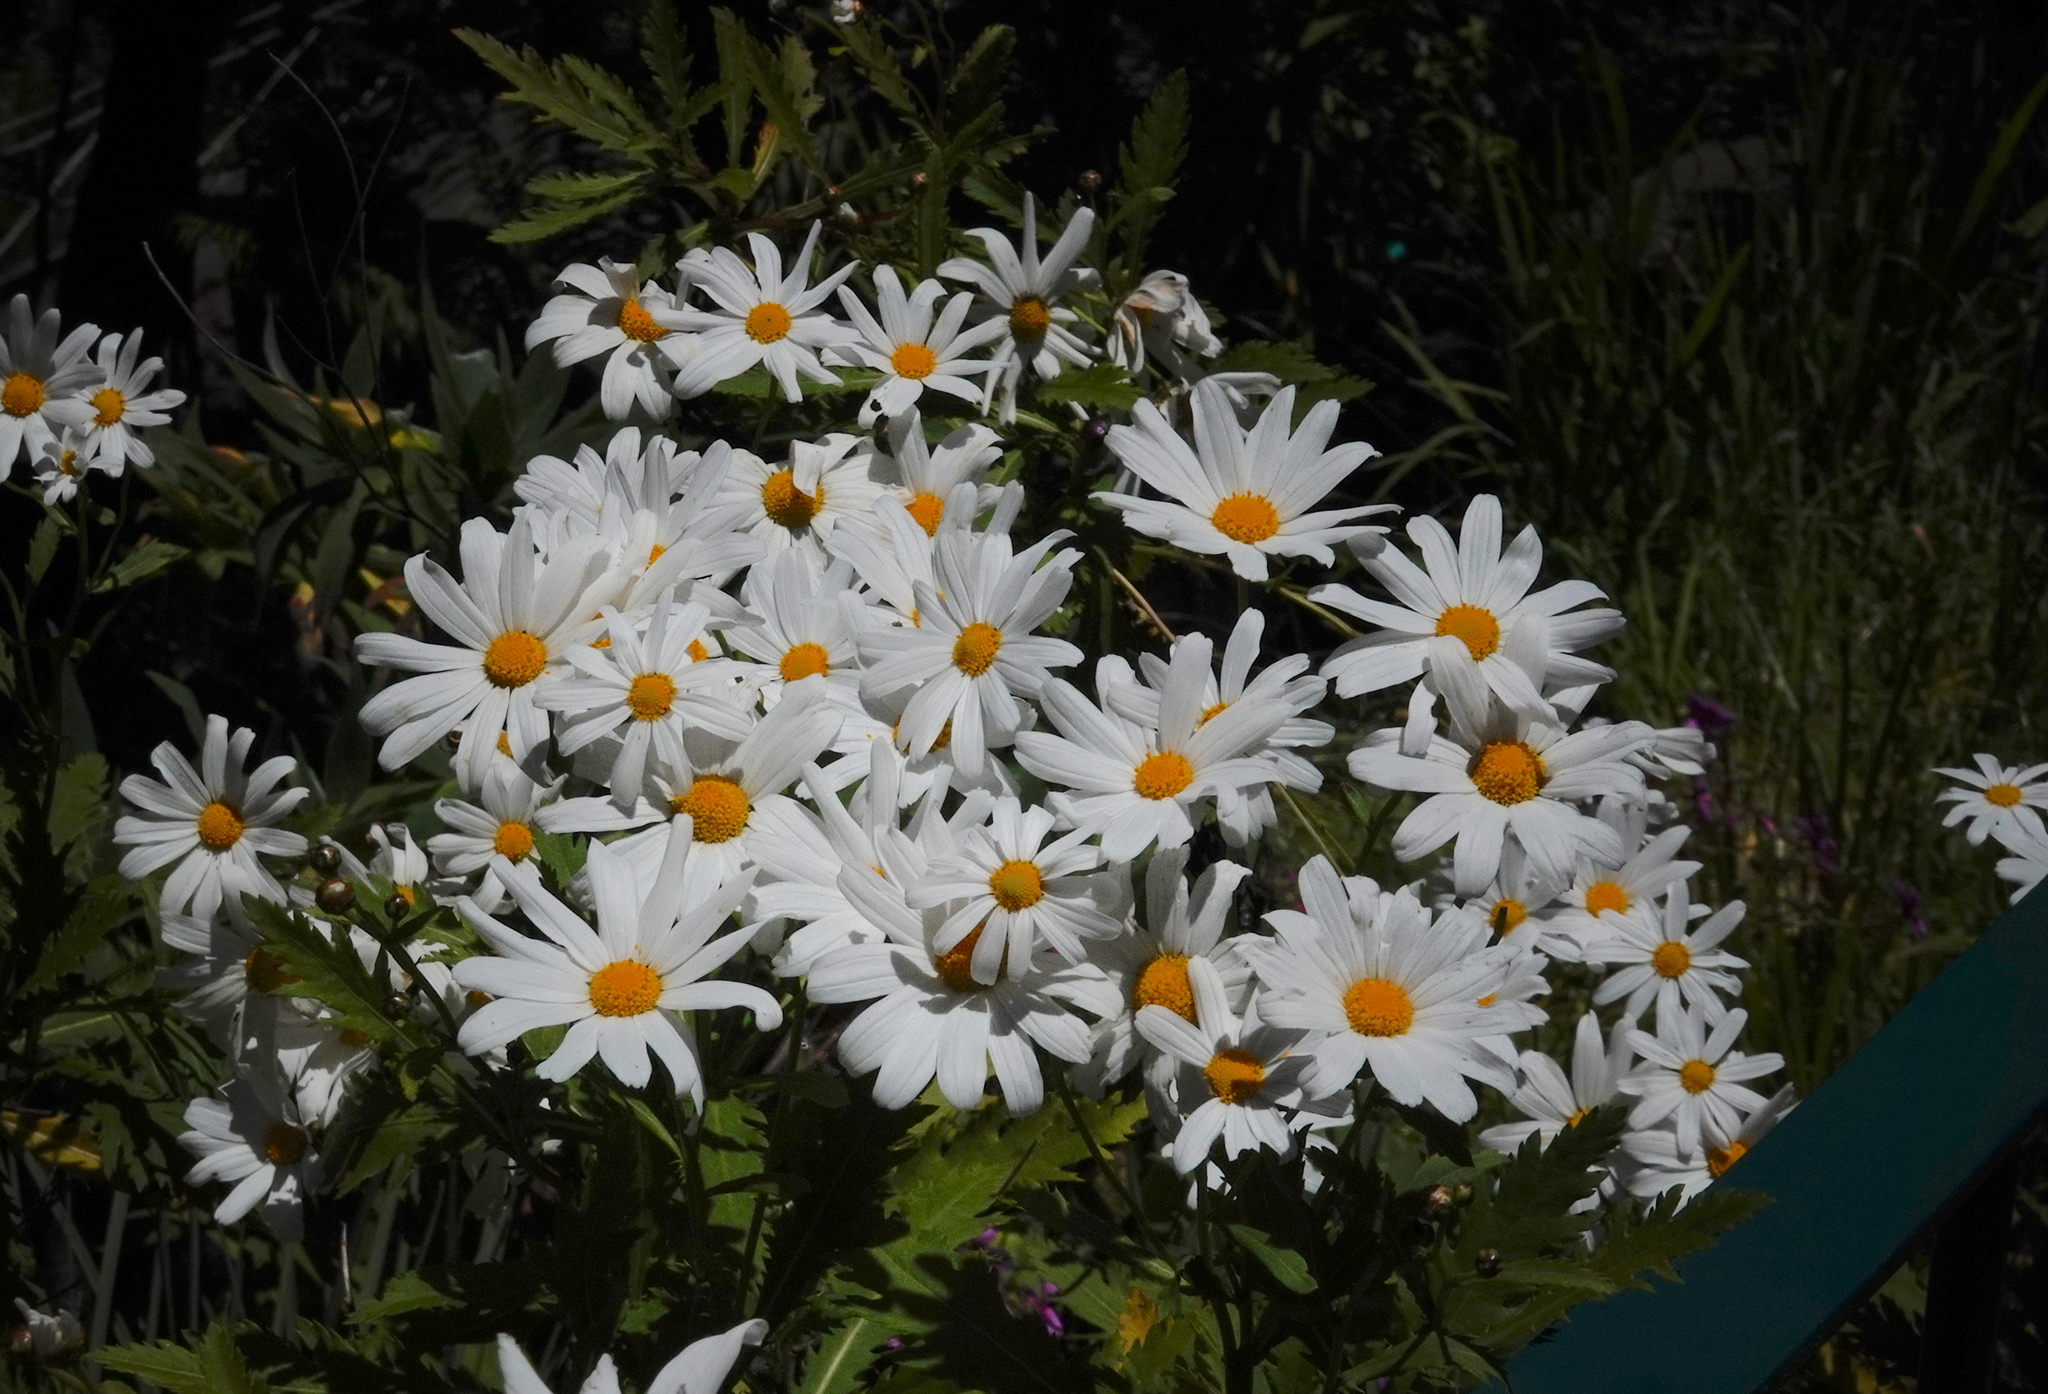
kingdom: Plantae
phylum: Tracheophyta
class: Magnoliopsida
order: Asterales
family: Asteraceae
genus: Argyranthemum
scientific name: Argyranthemum pinnatifidum
